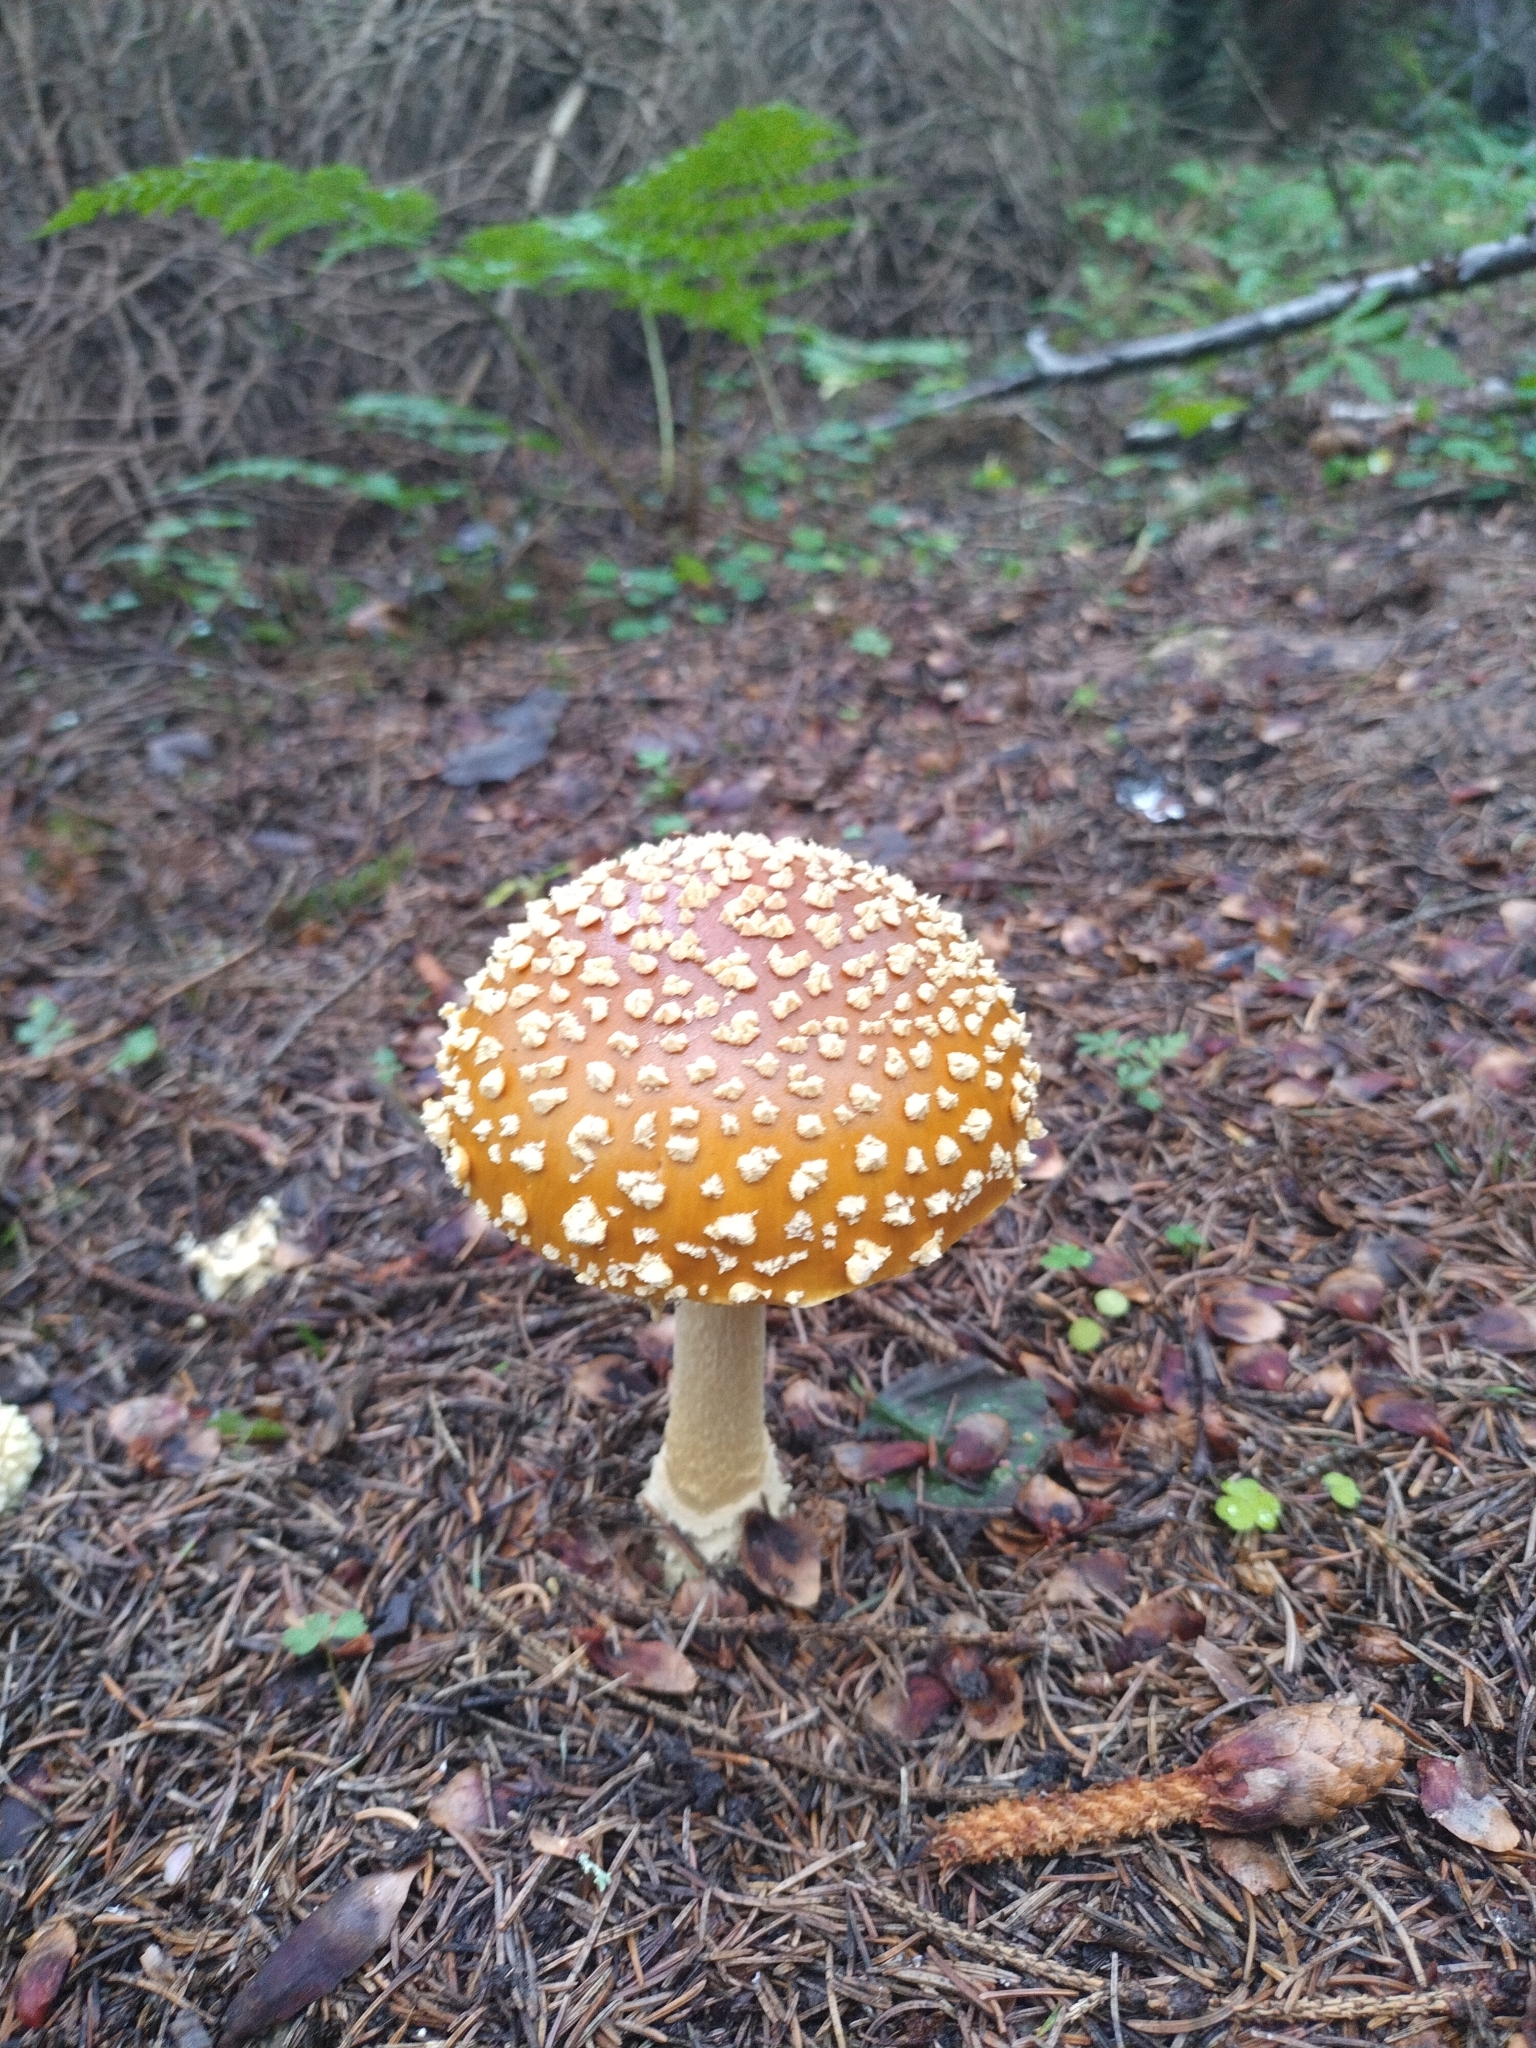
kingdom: Fungi
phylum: Basidiomycota
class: Agaricomycetes
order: Agaricales
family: Amanitaceae
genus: Amanita
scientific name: Amanita regalis
